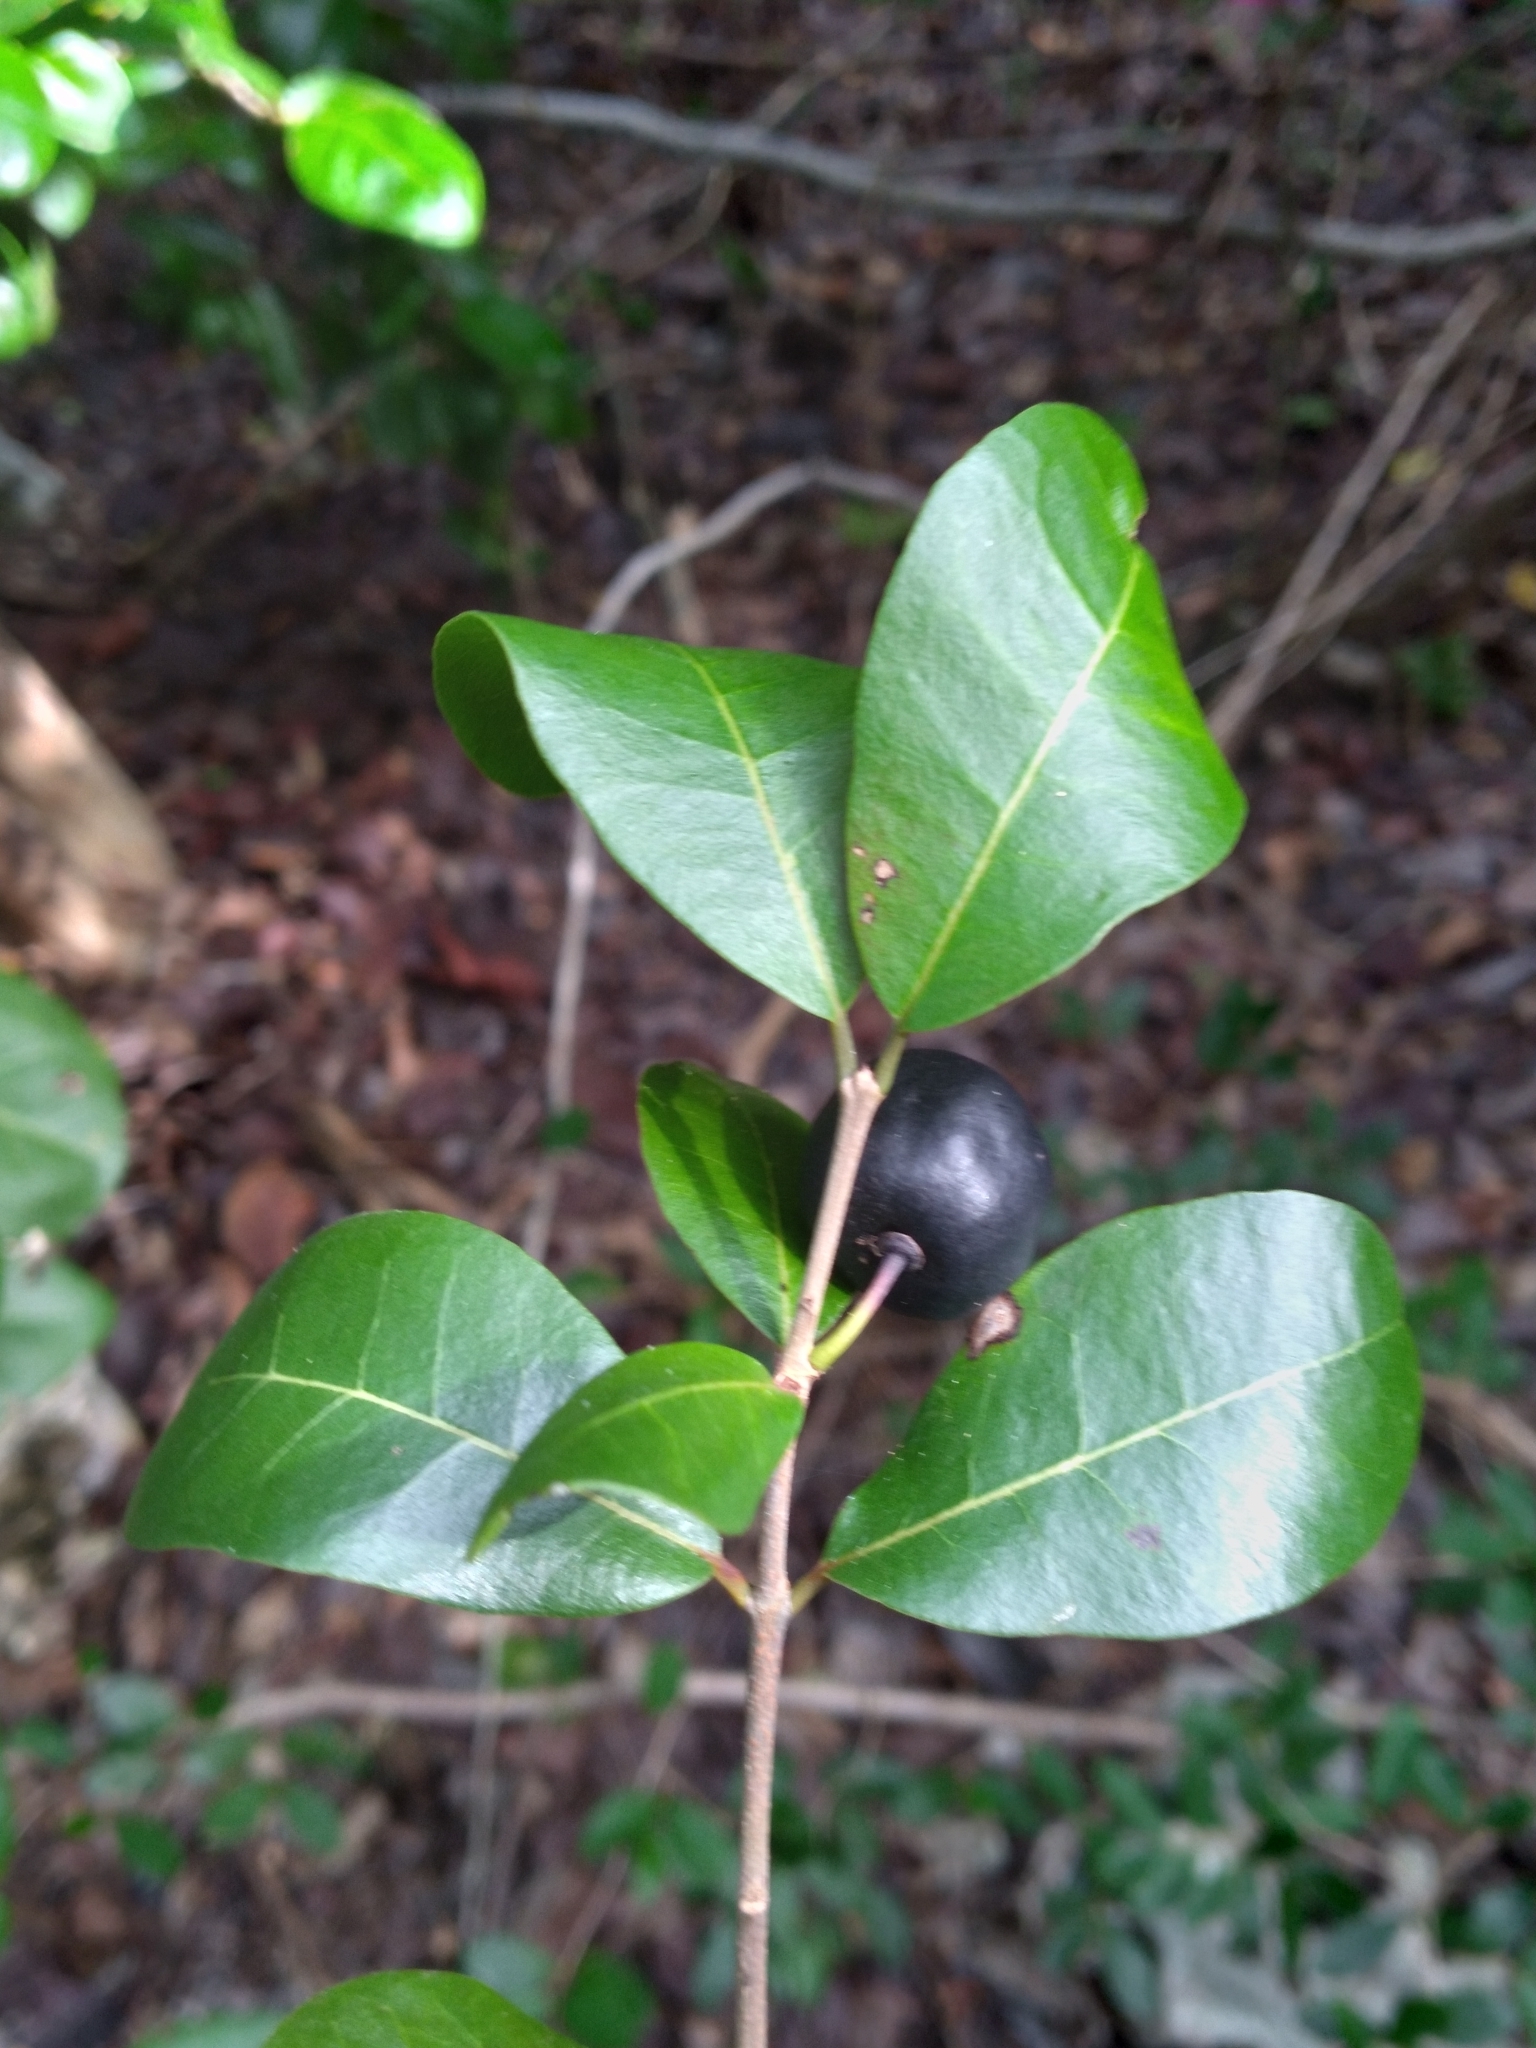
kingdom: Plantae
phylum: Tracheophyta
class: Magnoliopsida
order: Rosales
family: Rhamnaceae
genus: Reynosia
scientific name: Reynosia septentrionalis
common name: Red ironwood
